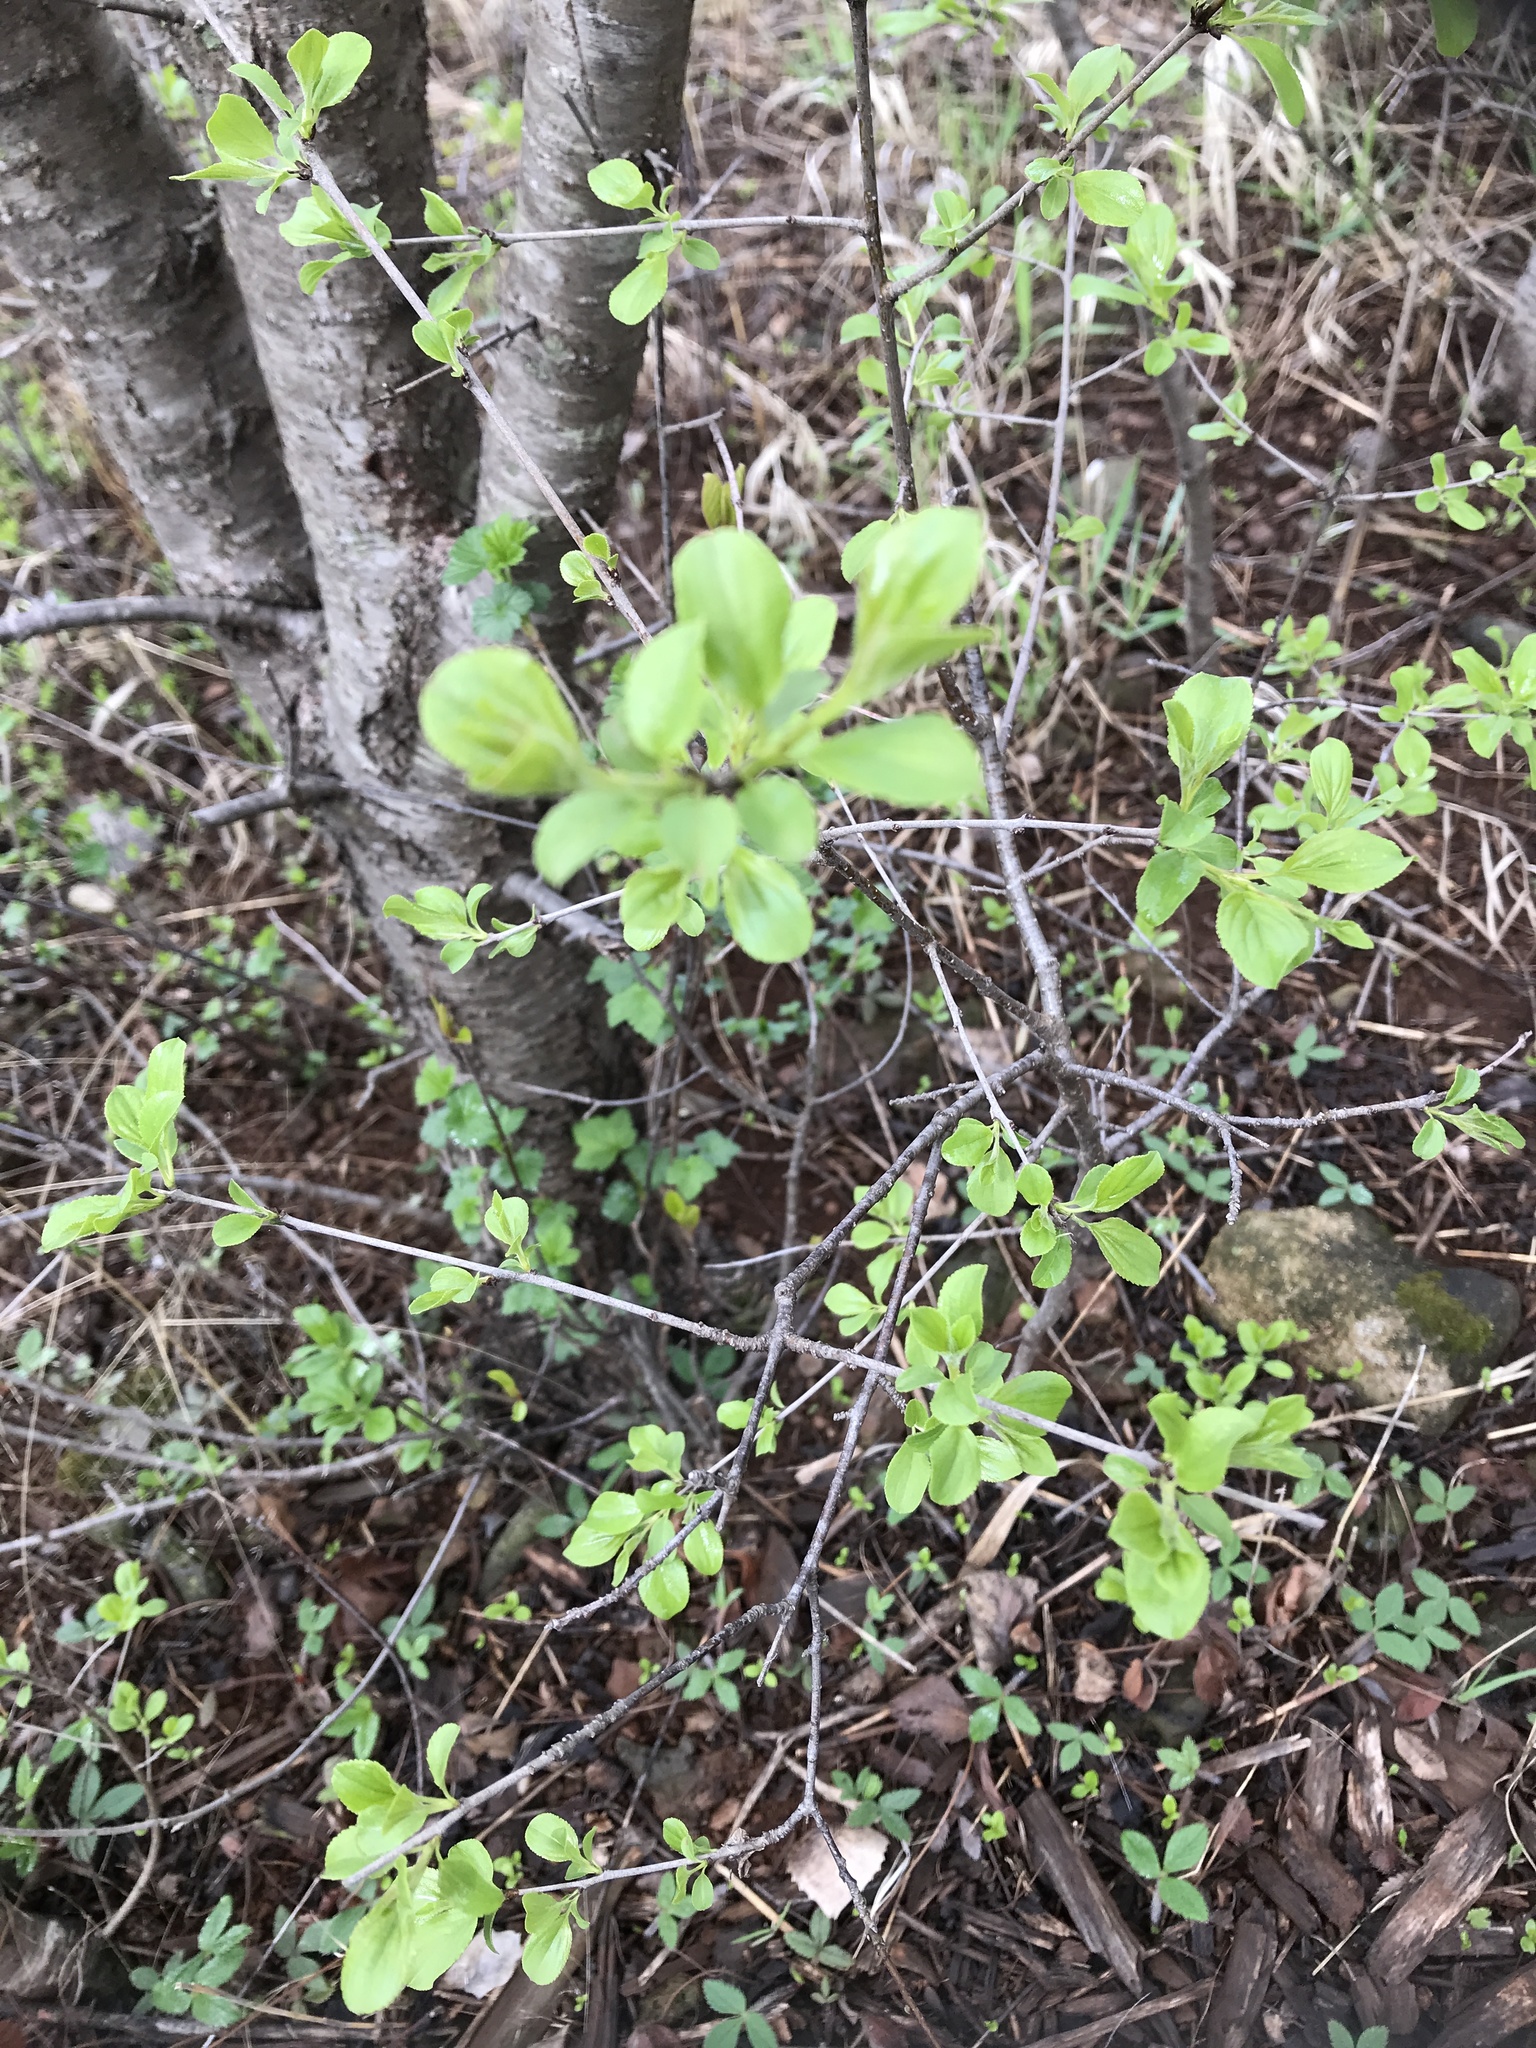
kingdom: Plantae
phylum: Tracheophyta
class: Magnoliopsida
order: Rosales
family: Rhamnaceae
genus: Rhamnus
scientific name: Rhamnus cathartica
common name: Common buckthorn
